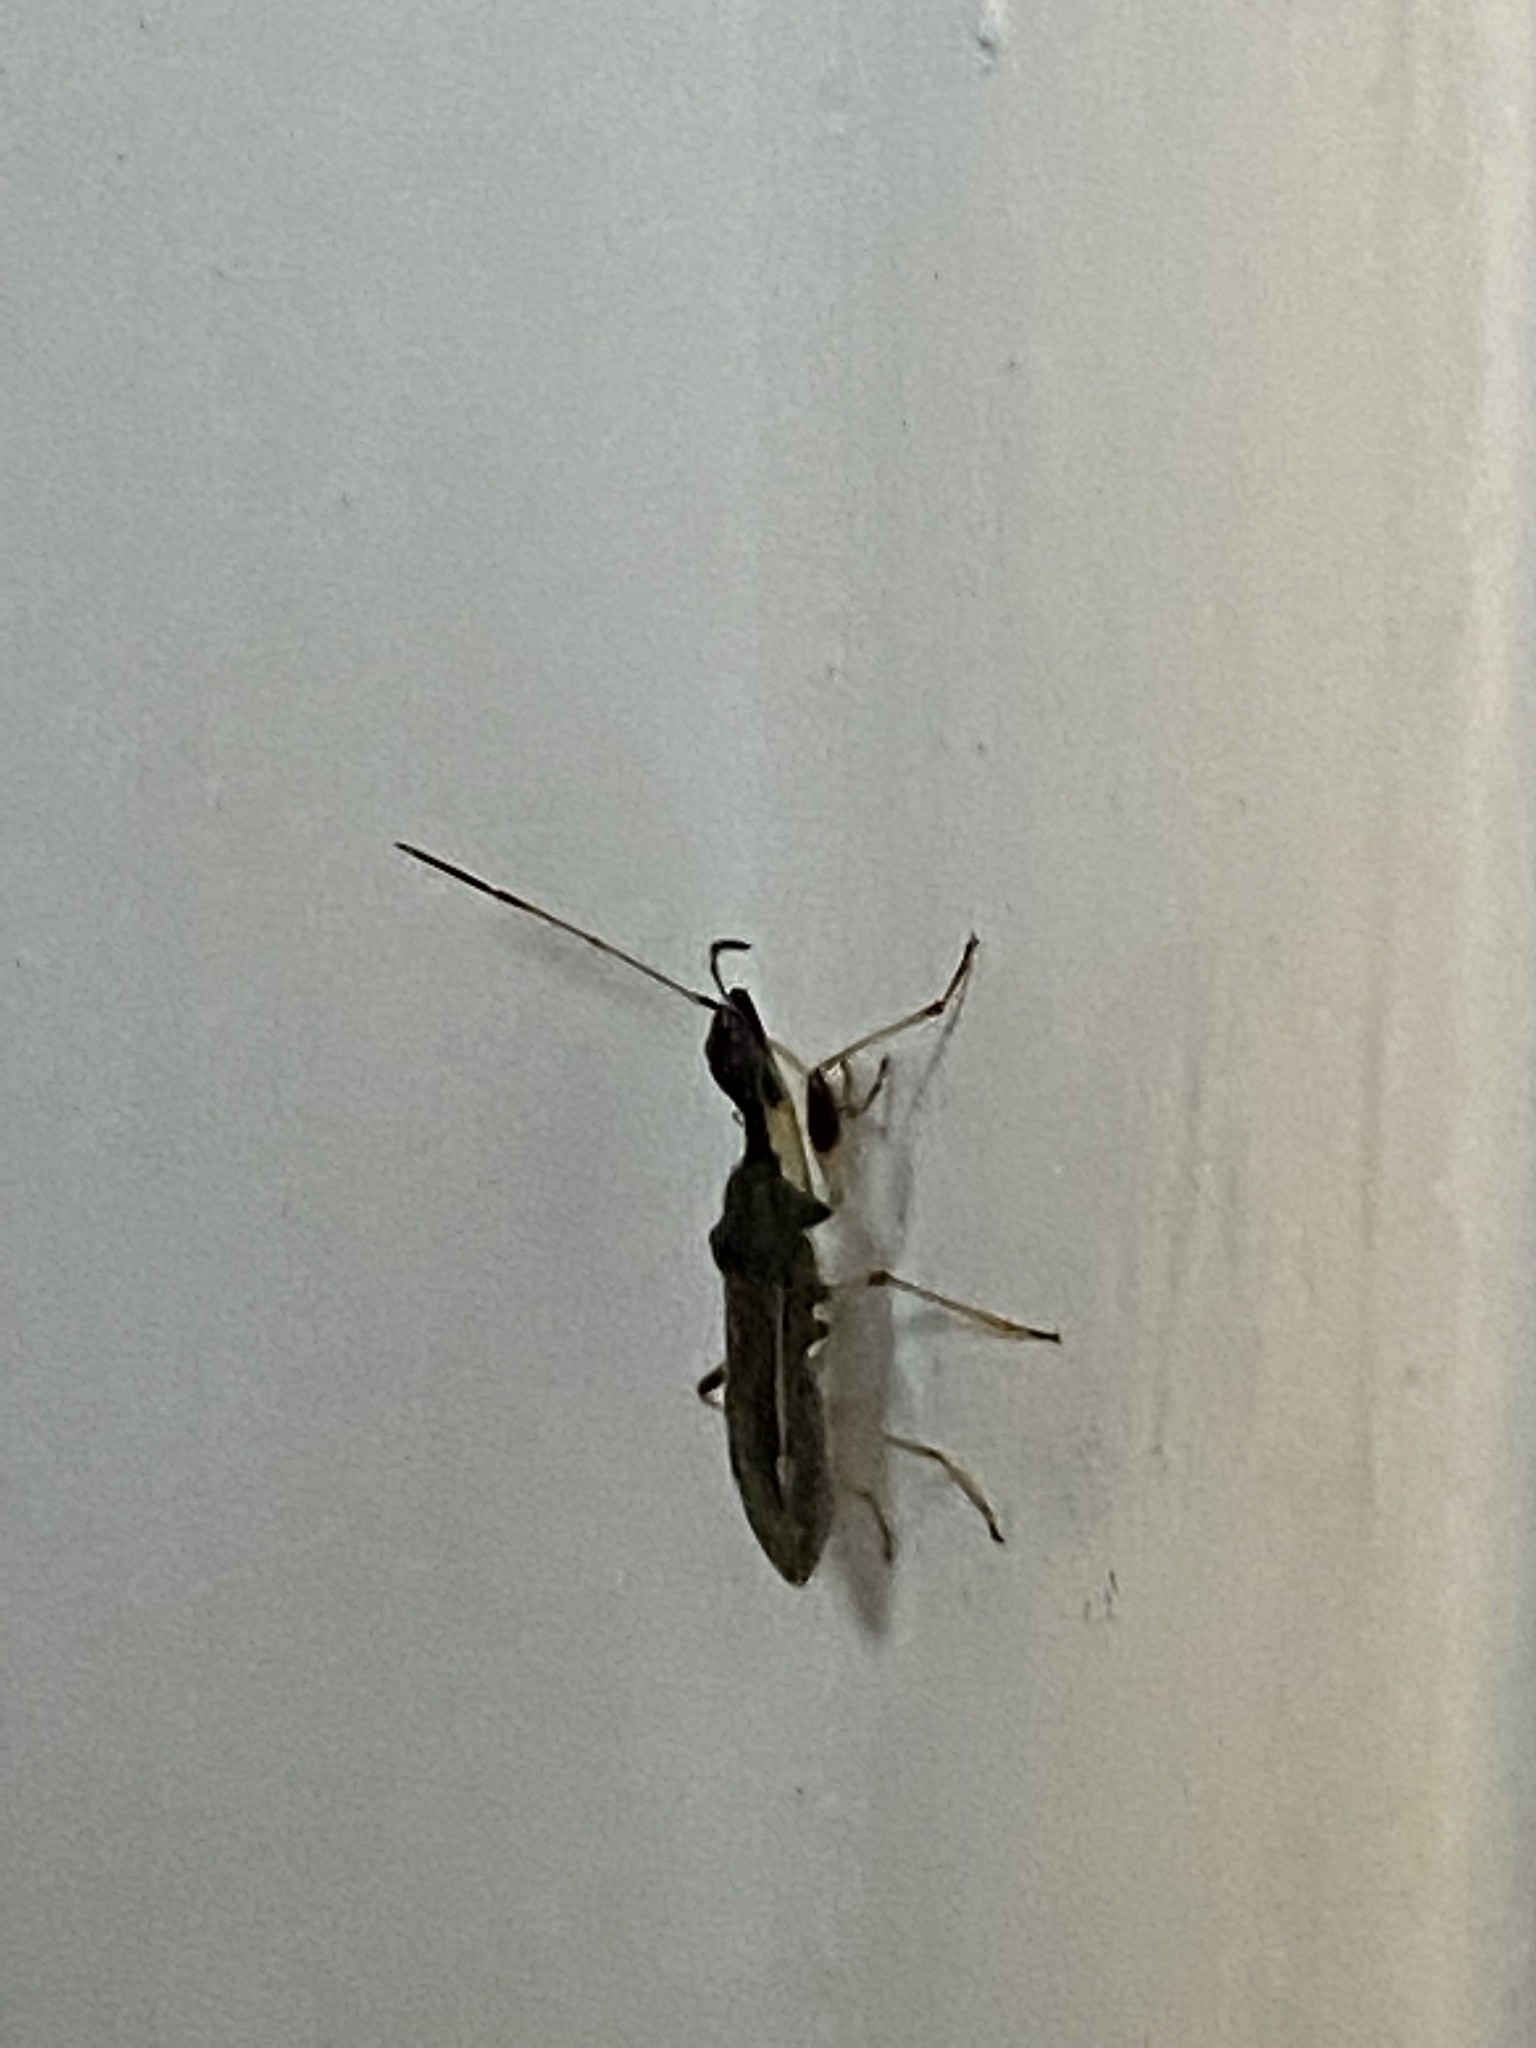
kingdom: Animalia
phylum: Arthropoda
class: Insecta
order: Hemiptera
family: Rhyparochromidae
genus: Myodocha
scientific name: Myodocha serripes
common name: Long-necked seed bug
